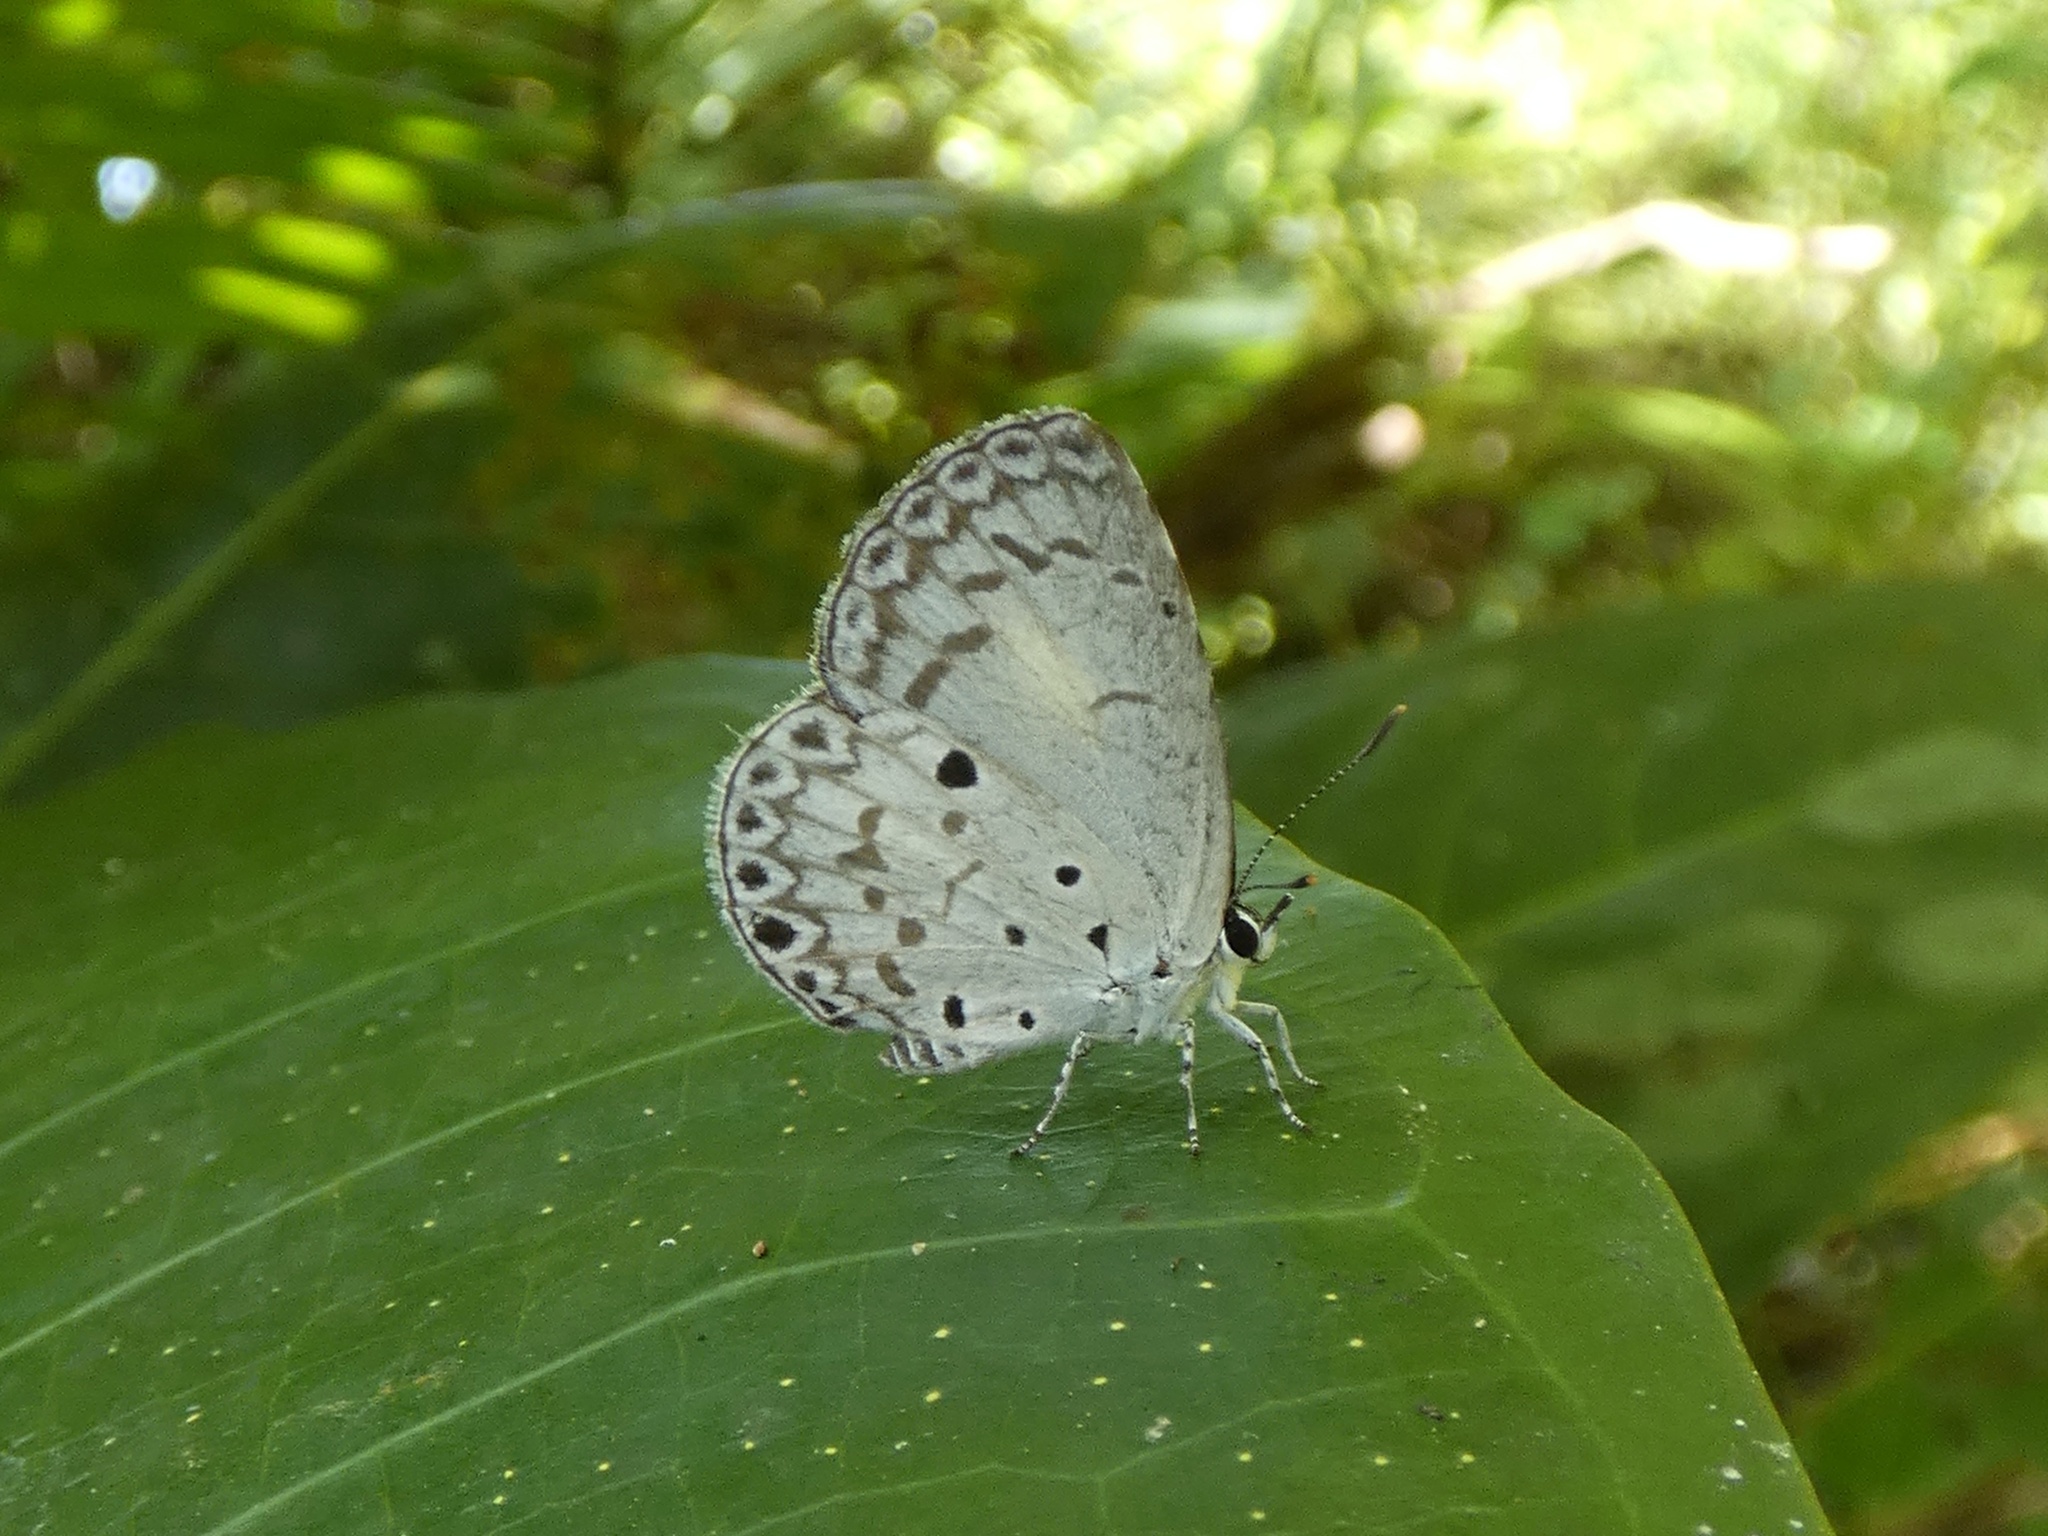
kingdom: Animalia
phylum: Arthropoda
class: Insecta
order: Lepidoptera
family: Lycaenidae
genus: Acytolepis
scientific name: Acytolepis puspa
